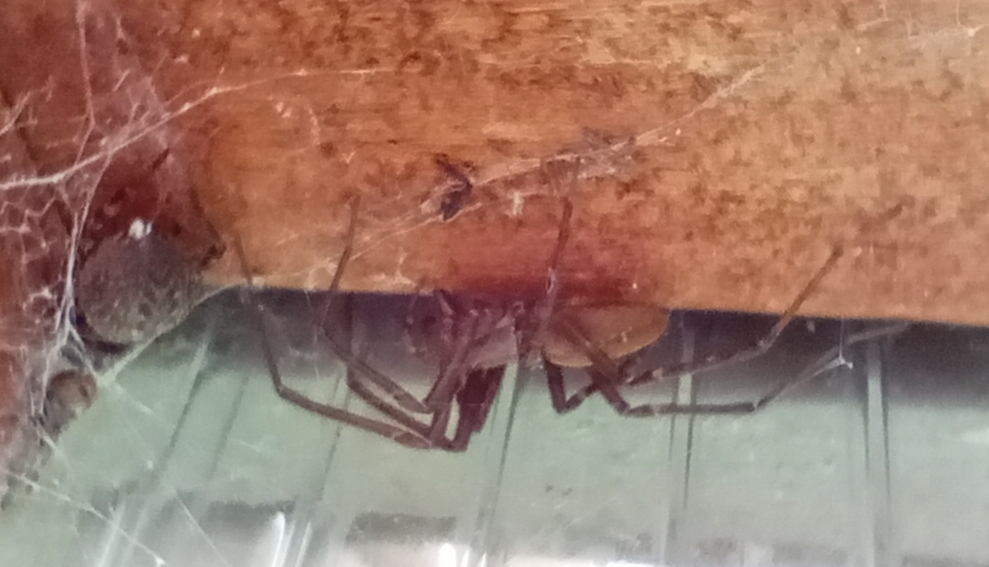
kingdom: Animalia
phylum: Arthropoda
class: Arachnida
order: Araneae
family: Desidae
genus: Cambridgea
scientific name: Cambridgea annulata
